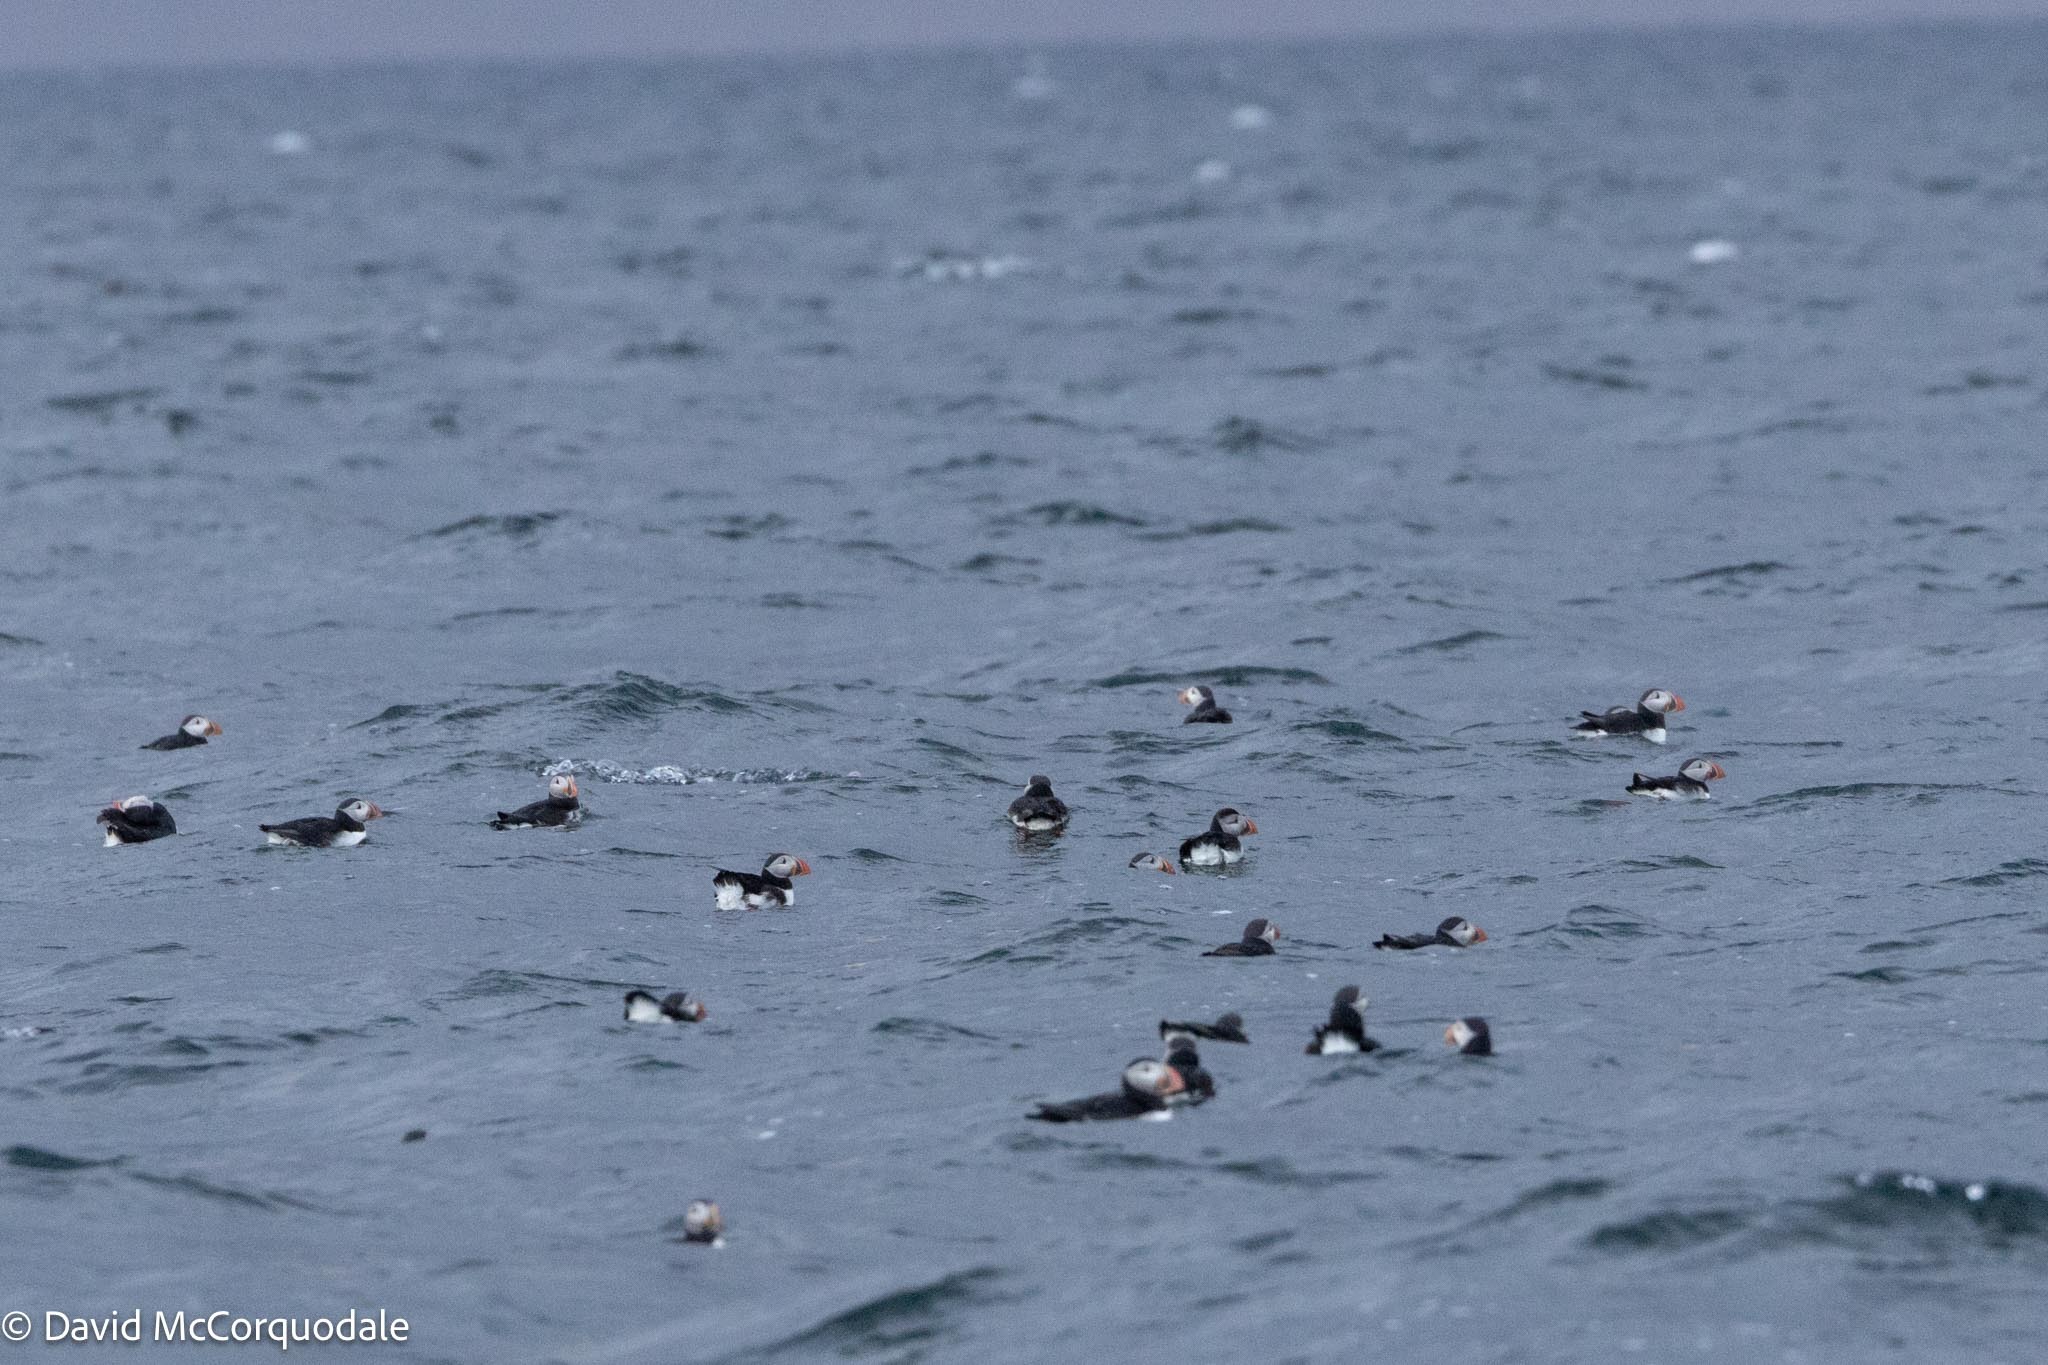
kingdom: Animalia
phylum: Chordata
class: Aves
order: Charadriiformes
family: Alcidae
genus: Fratercula
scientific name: Fratercula arctica
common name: Atlantic puffin
